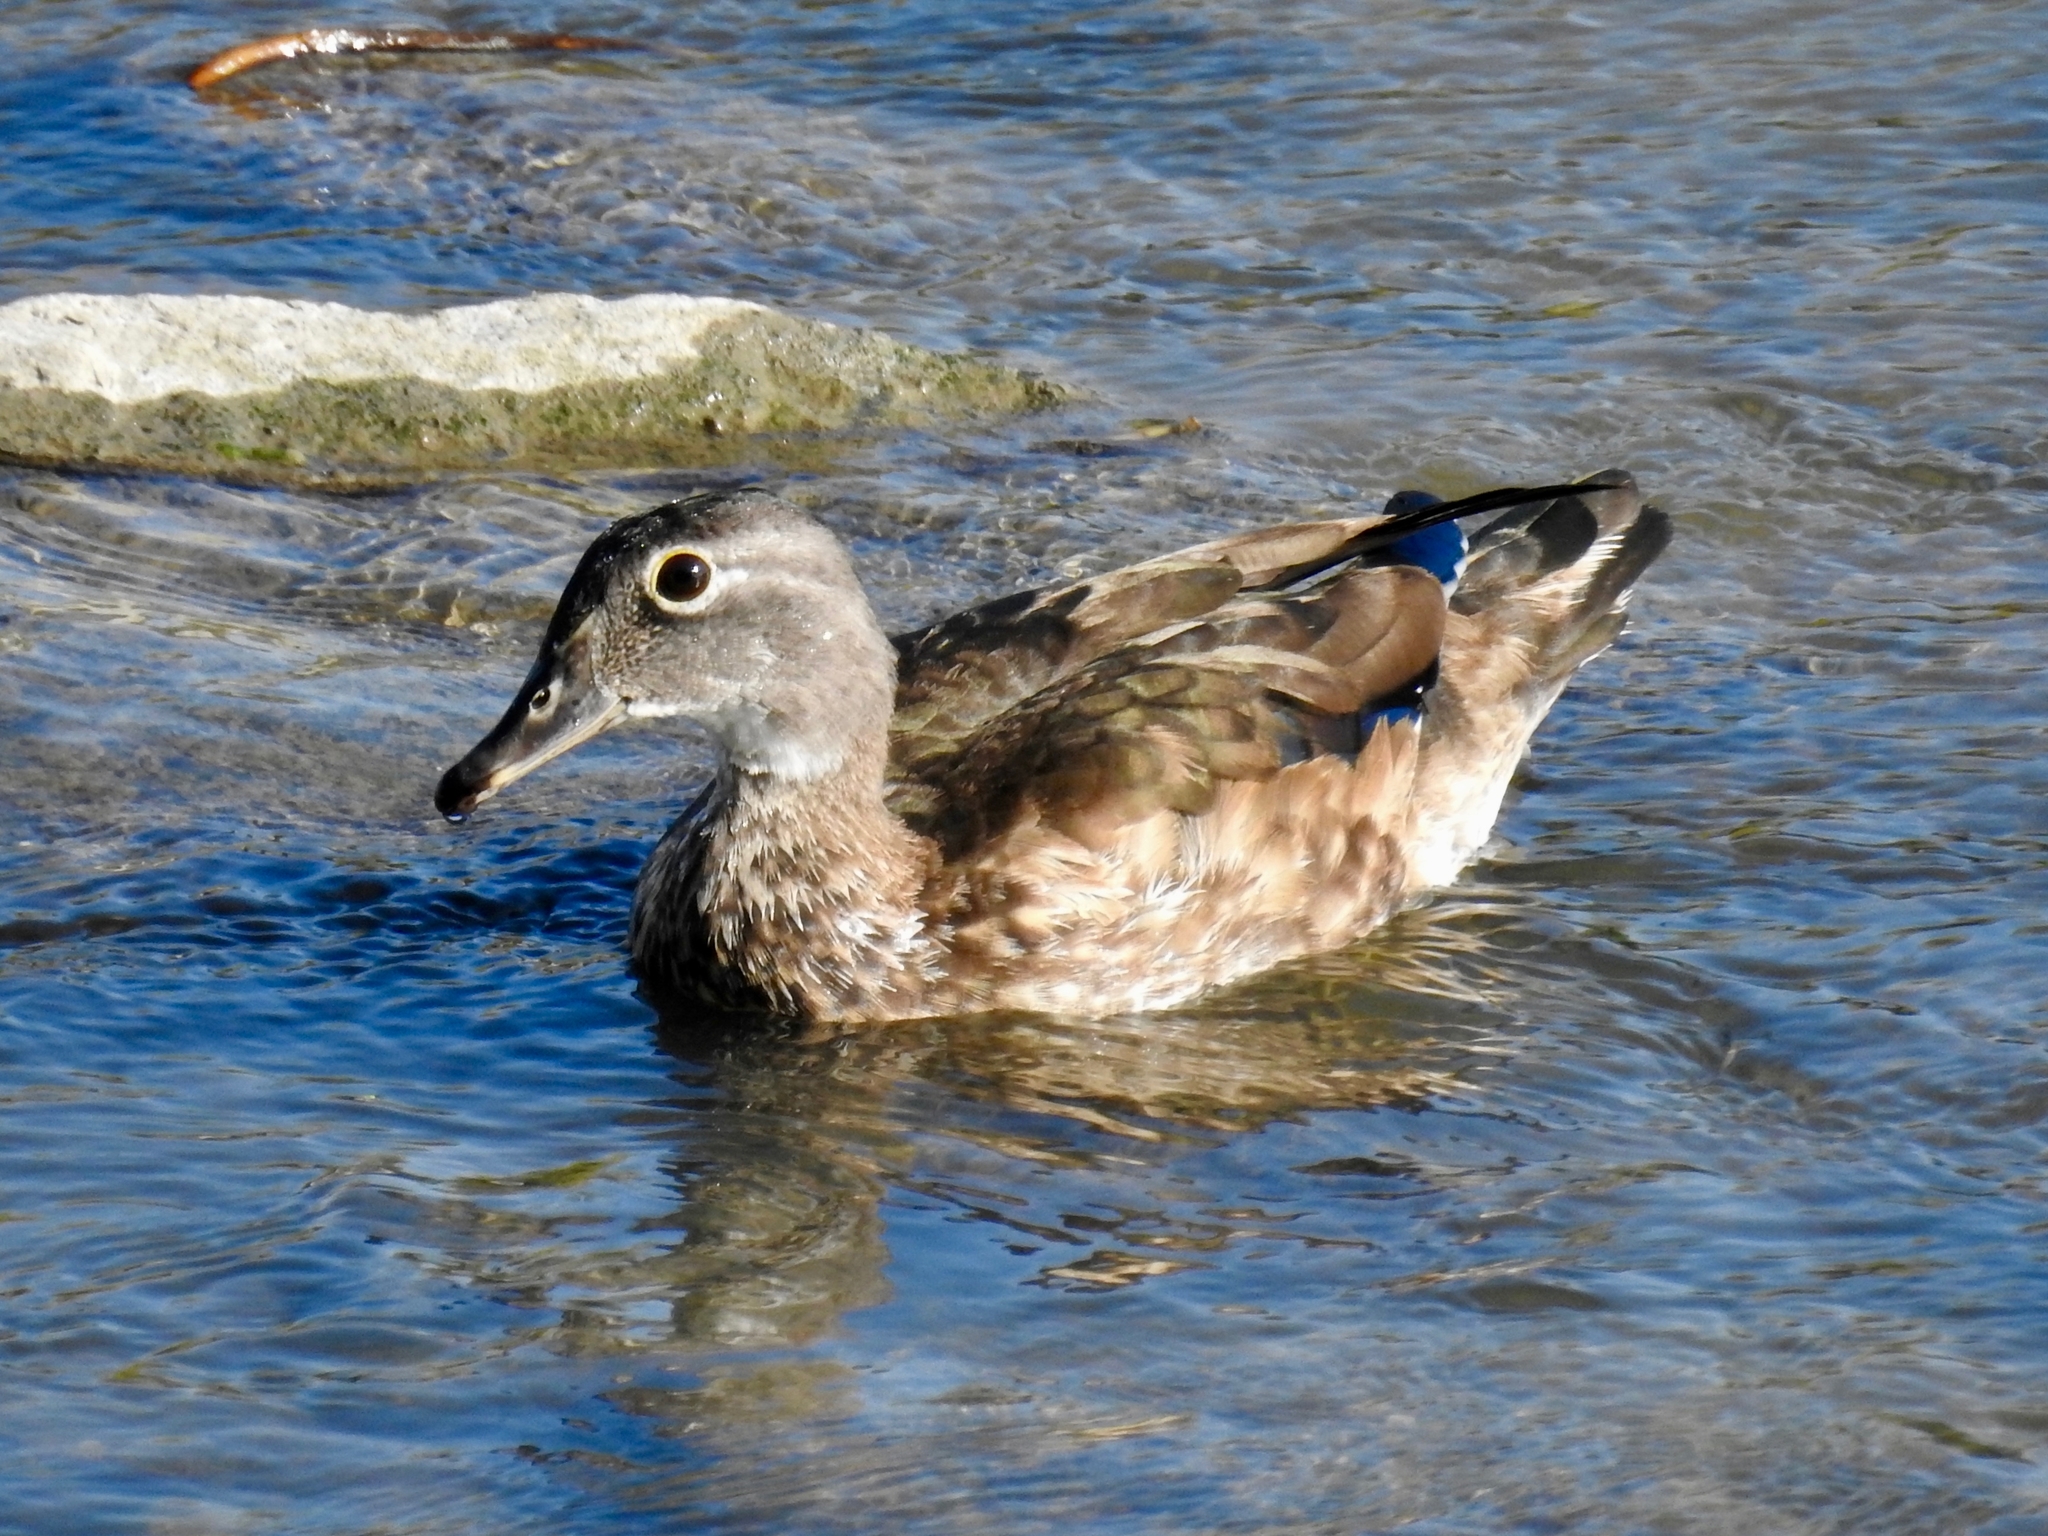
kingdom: Animalia
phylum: Chordata
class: Aves
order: Anseriformes
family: Anatidae
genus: Aix
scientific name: Aix sponsa
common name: Wood duck
